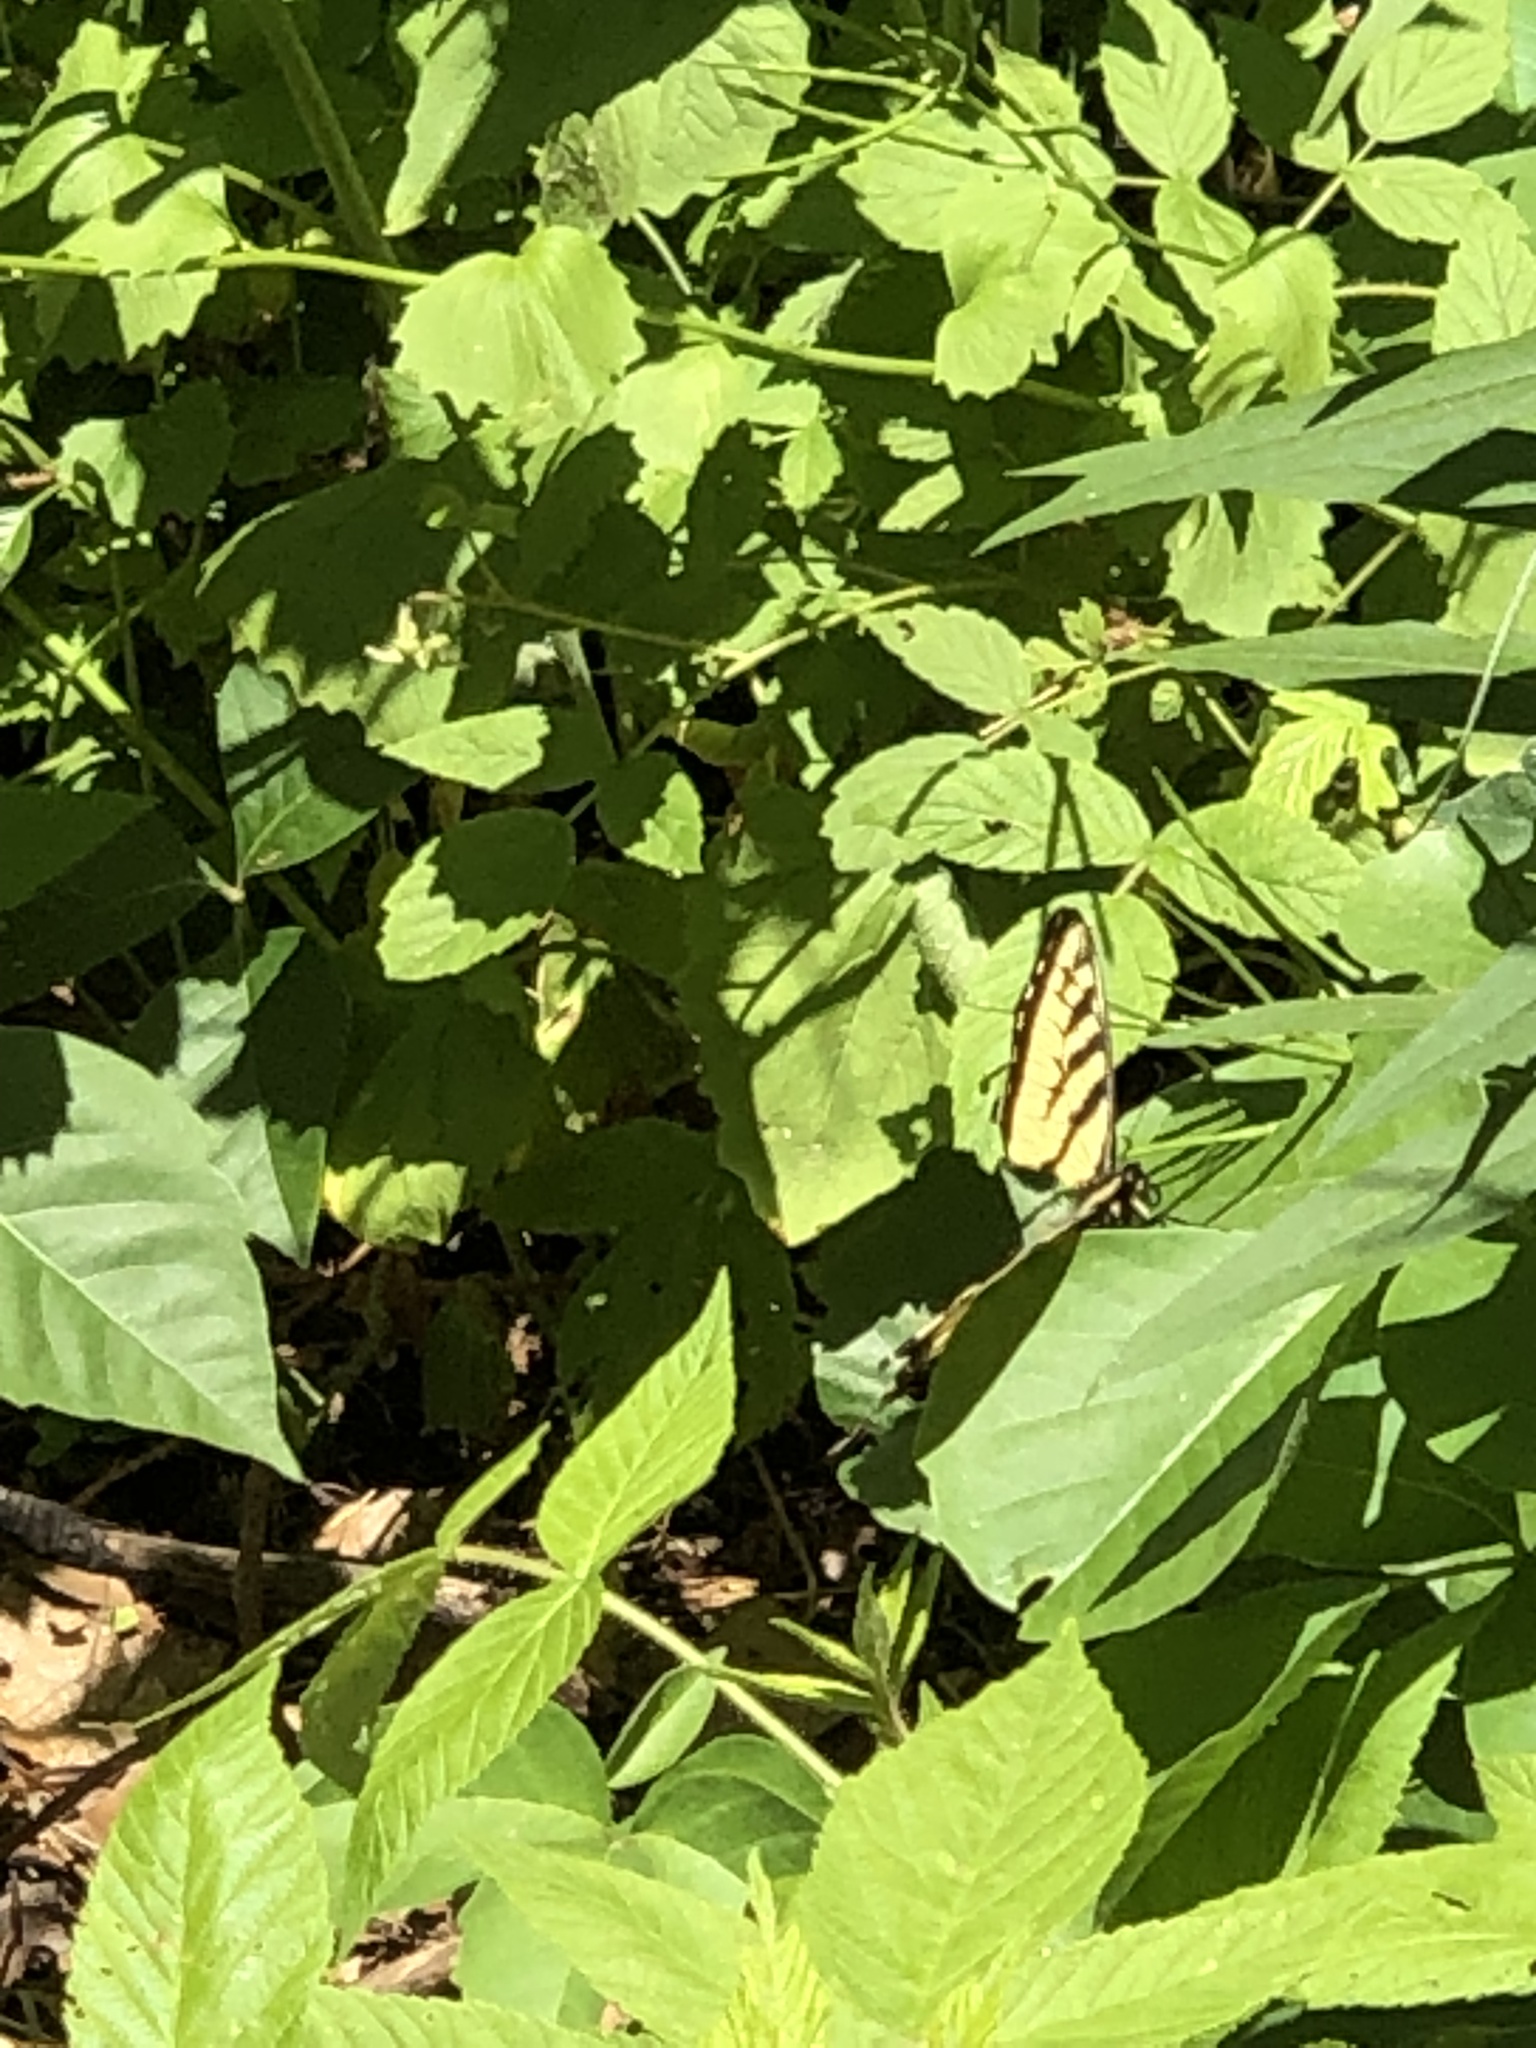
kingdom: Animalia
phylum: Arthropoda
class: Insecta
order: Lepidoptera
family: Papilionidae
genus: Papilio
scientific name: Papilio glaucus
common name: Tiger swallowtail
